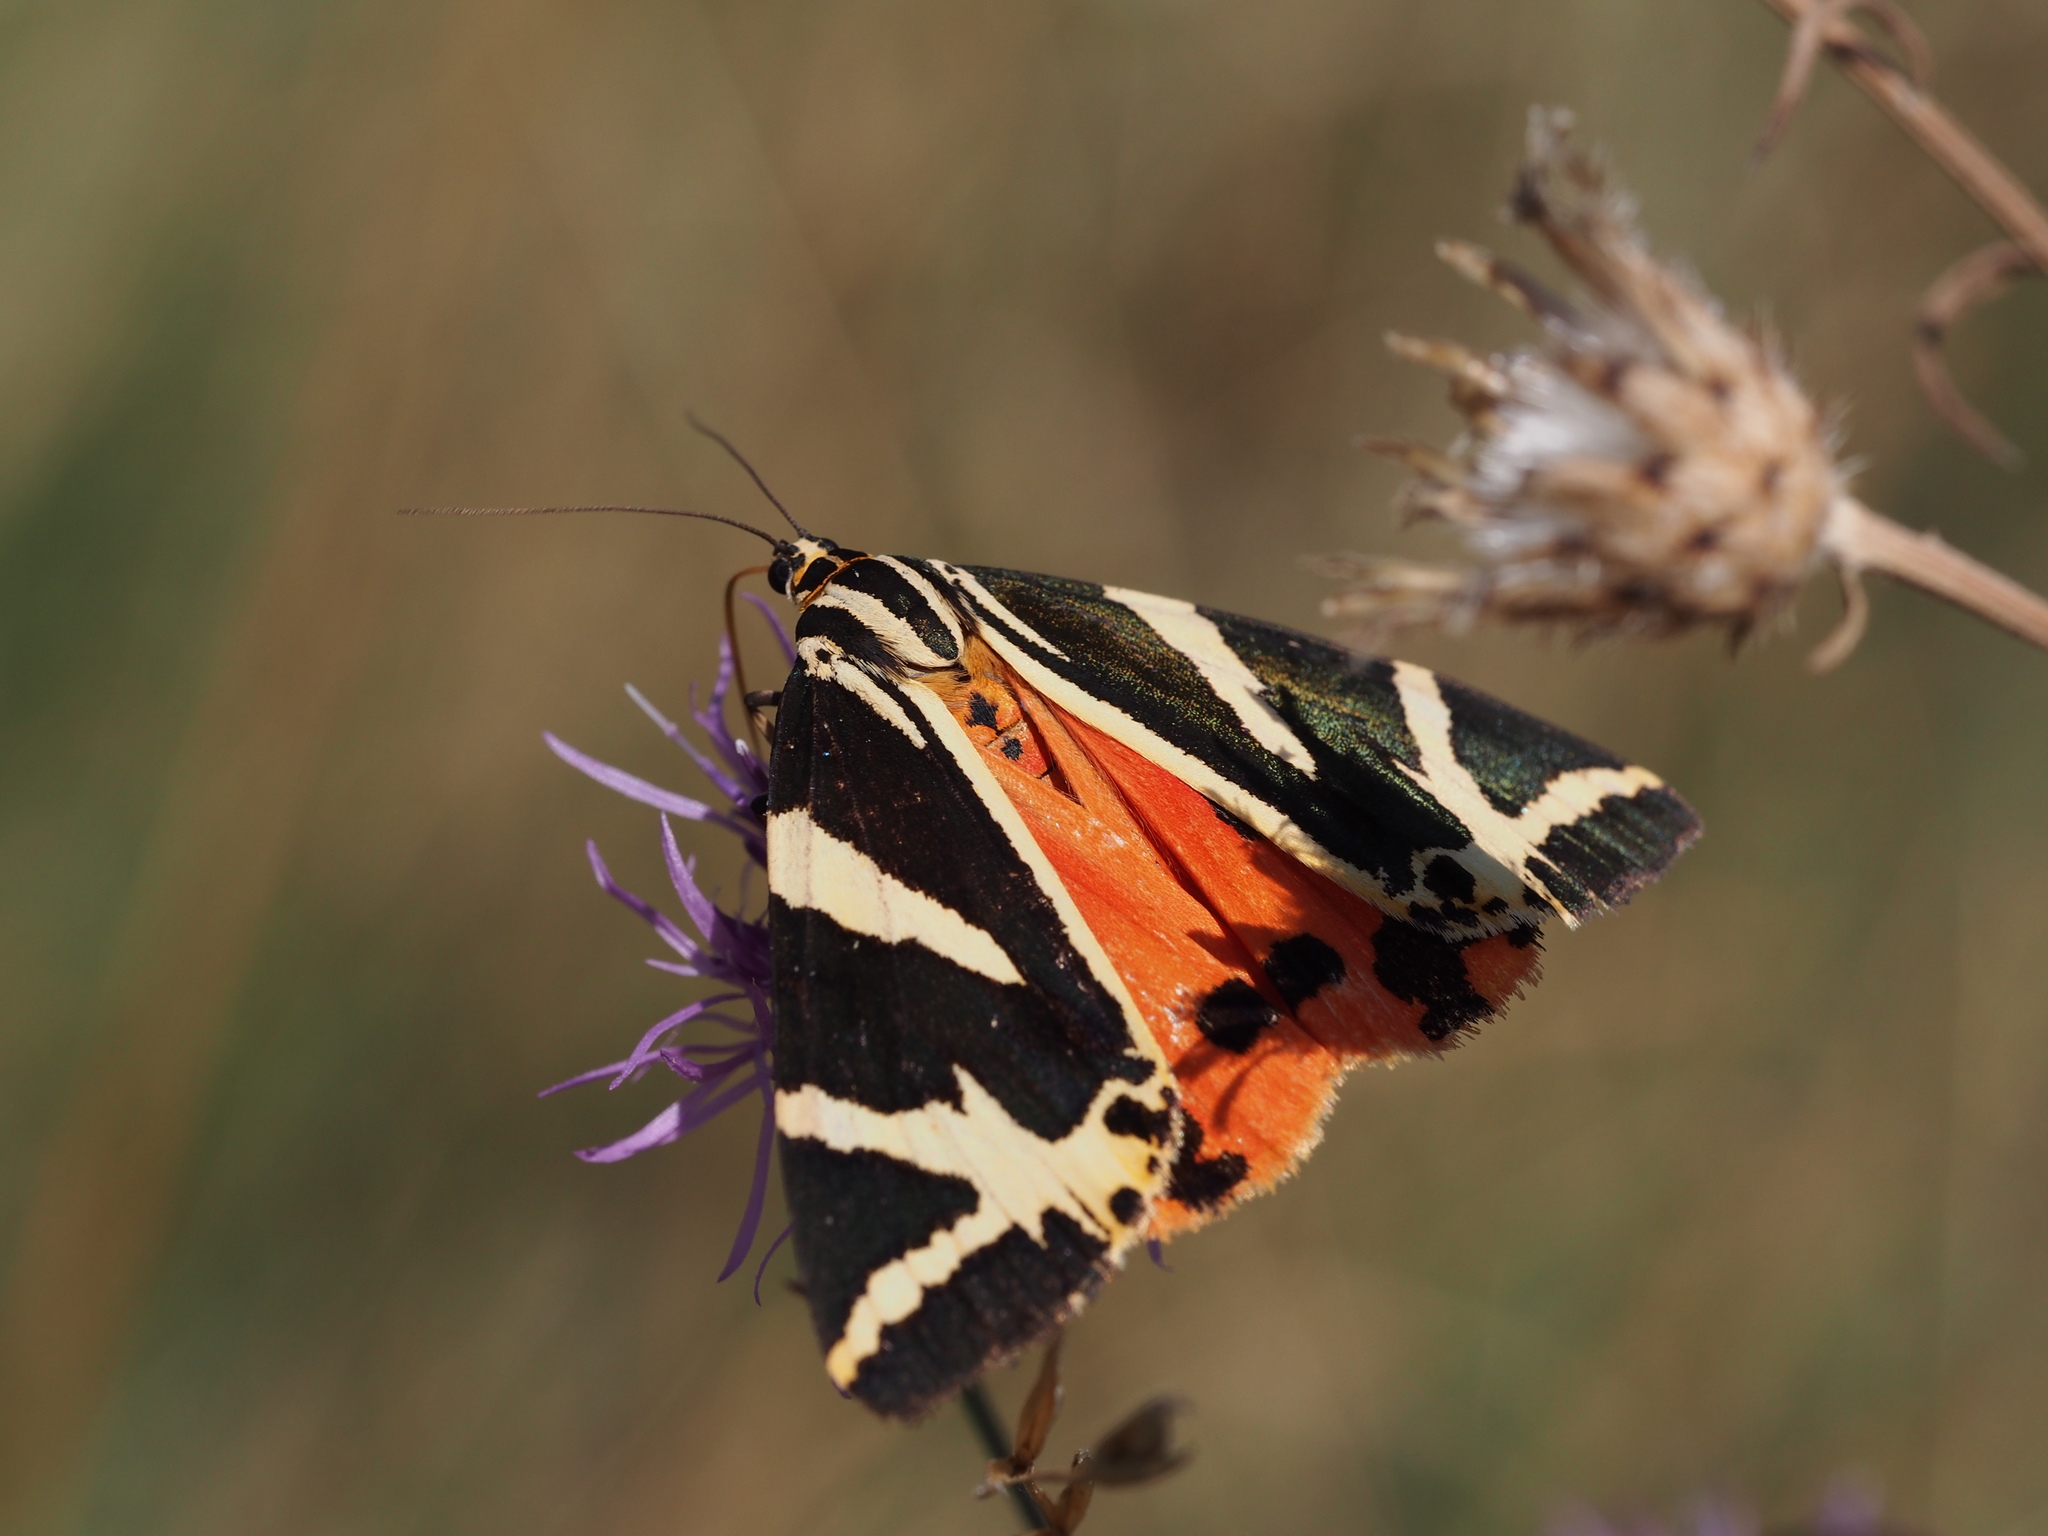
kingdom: Animalia
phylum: Arthropoda
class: Insecta
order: Lepidoptera
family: Erebidae
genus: Euplagia
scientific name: Euplagia quadripunctaria
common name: Jersey tiger
